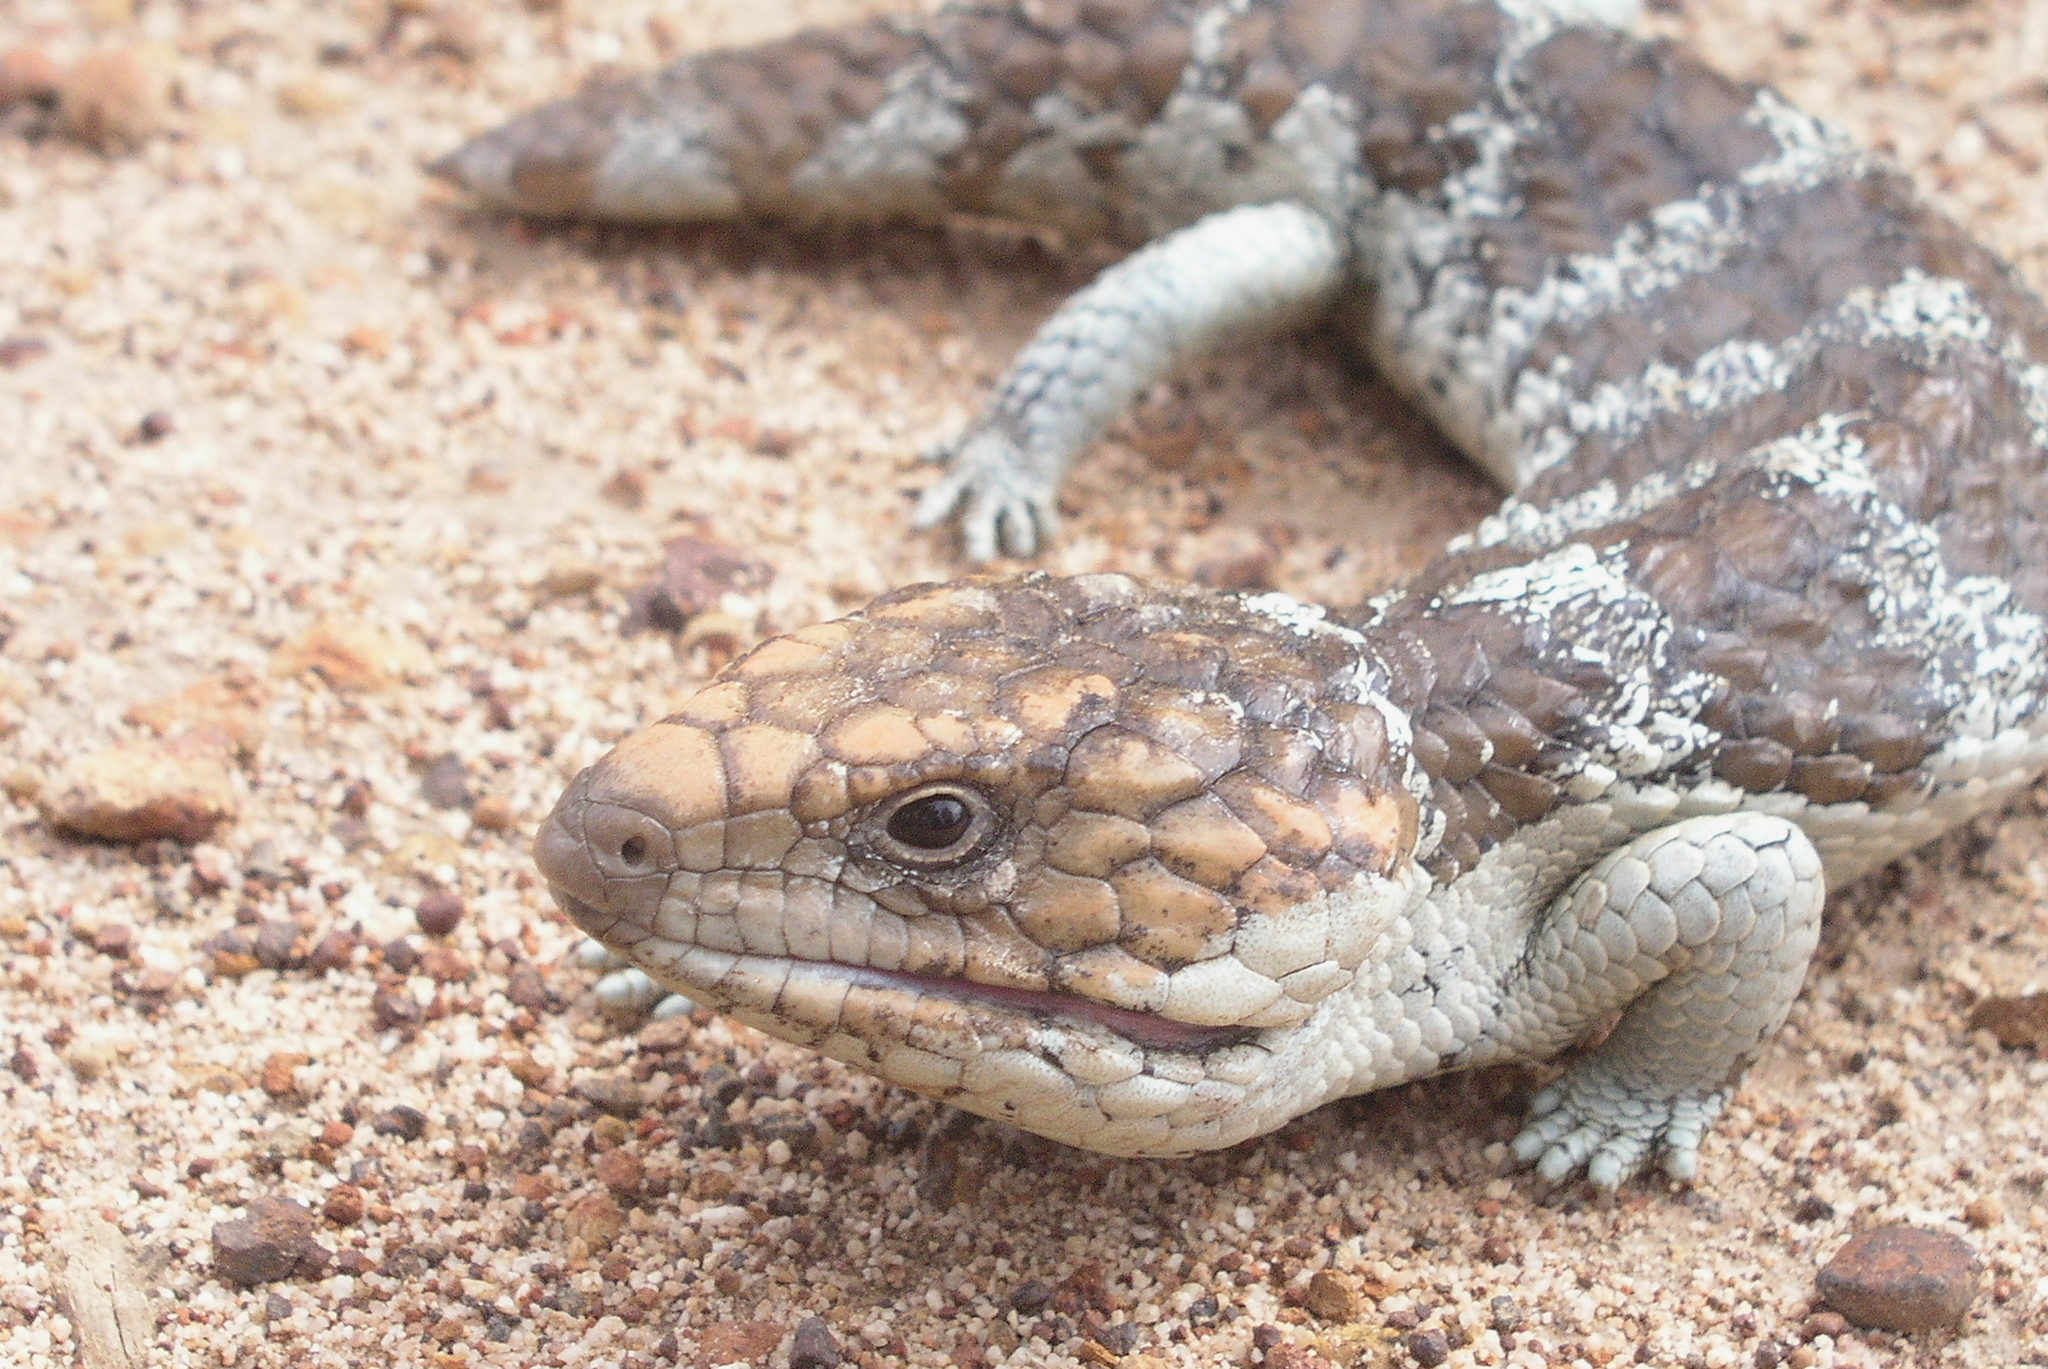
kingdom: Animalia
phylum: Chordata
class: Squamata
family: Scincidae
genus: Tiliqua
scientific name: Tiliqua rugosa
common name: Pinecone lizard
